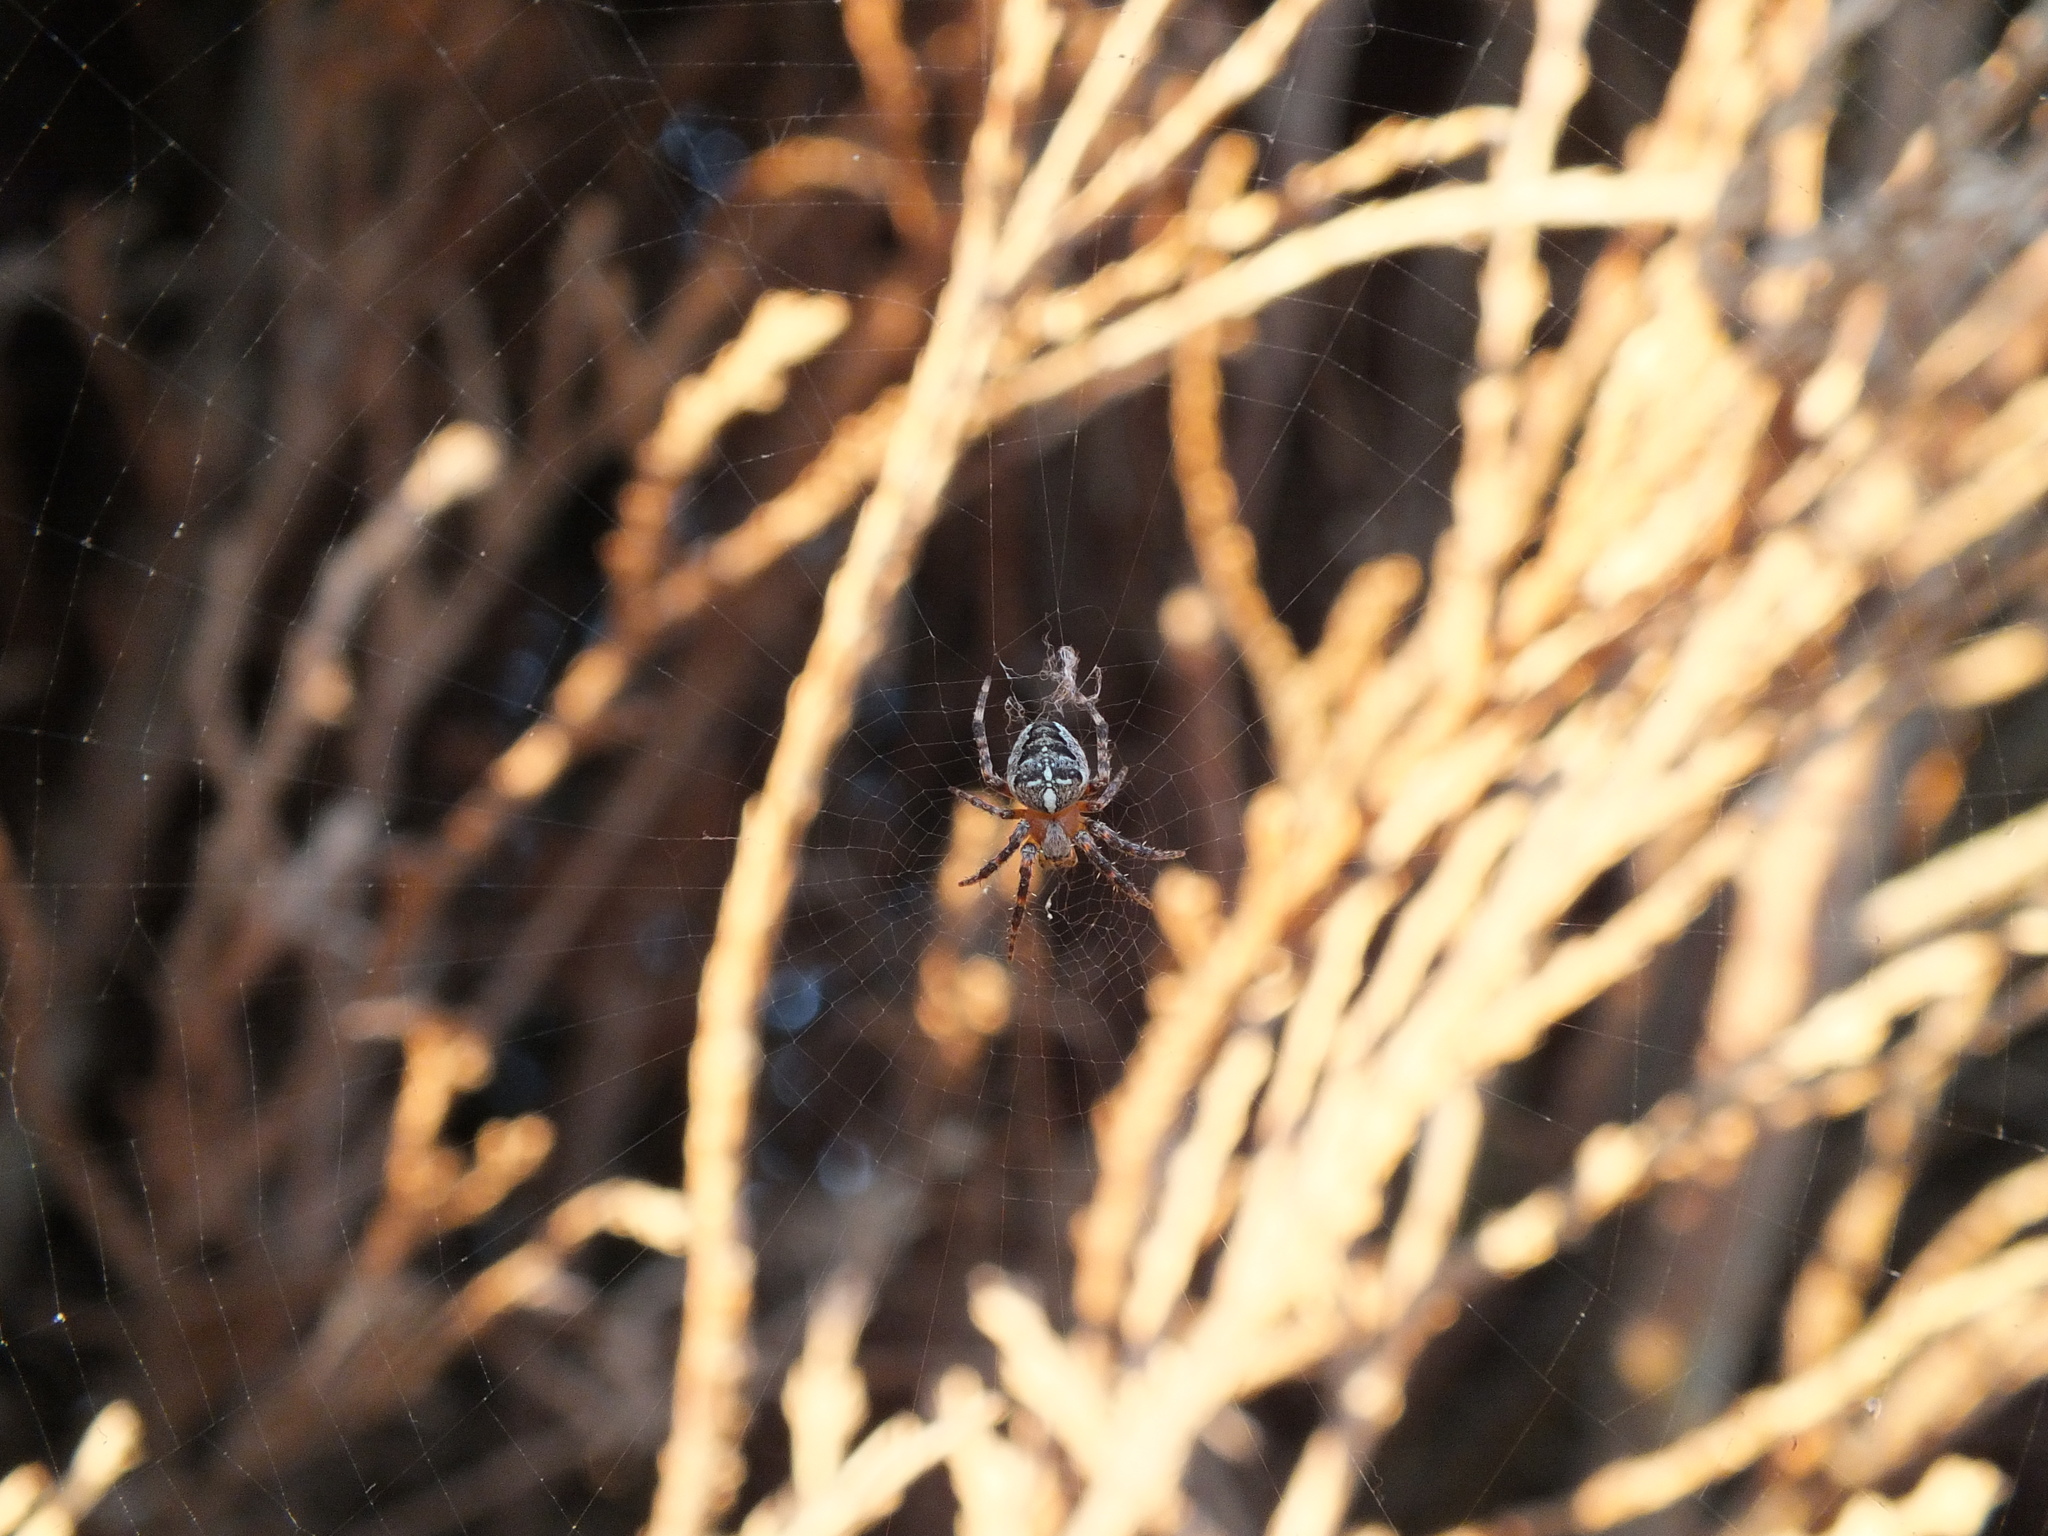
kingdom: Animalia
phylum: Arthropoda
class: Arachnida
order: Araneae
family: Araneidae
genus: Araneus
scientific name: Araneus diadematus
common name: Cross orbweaver
